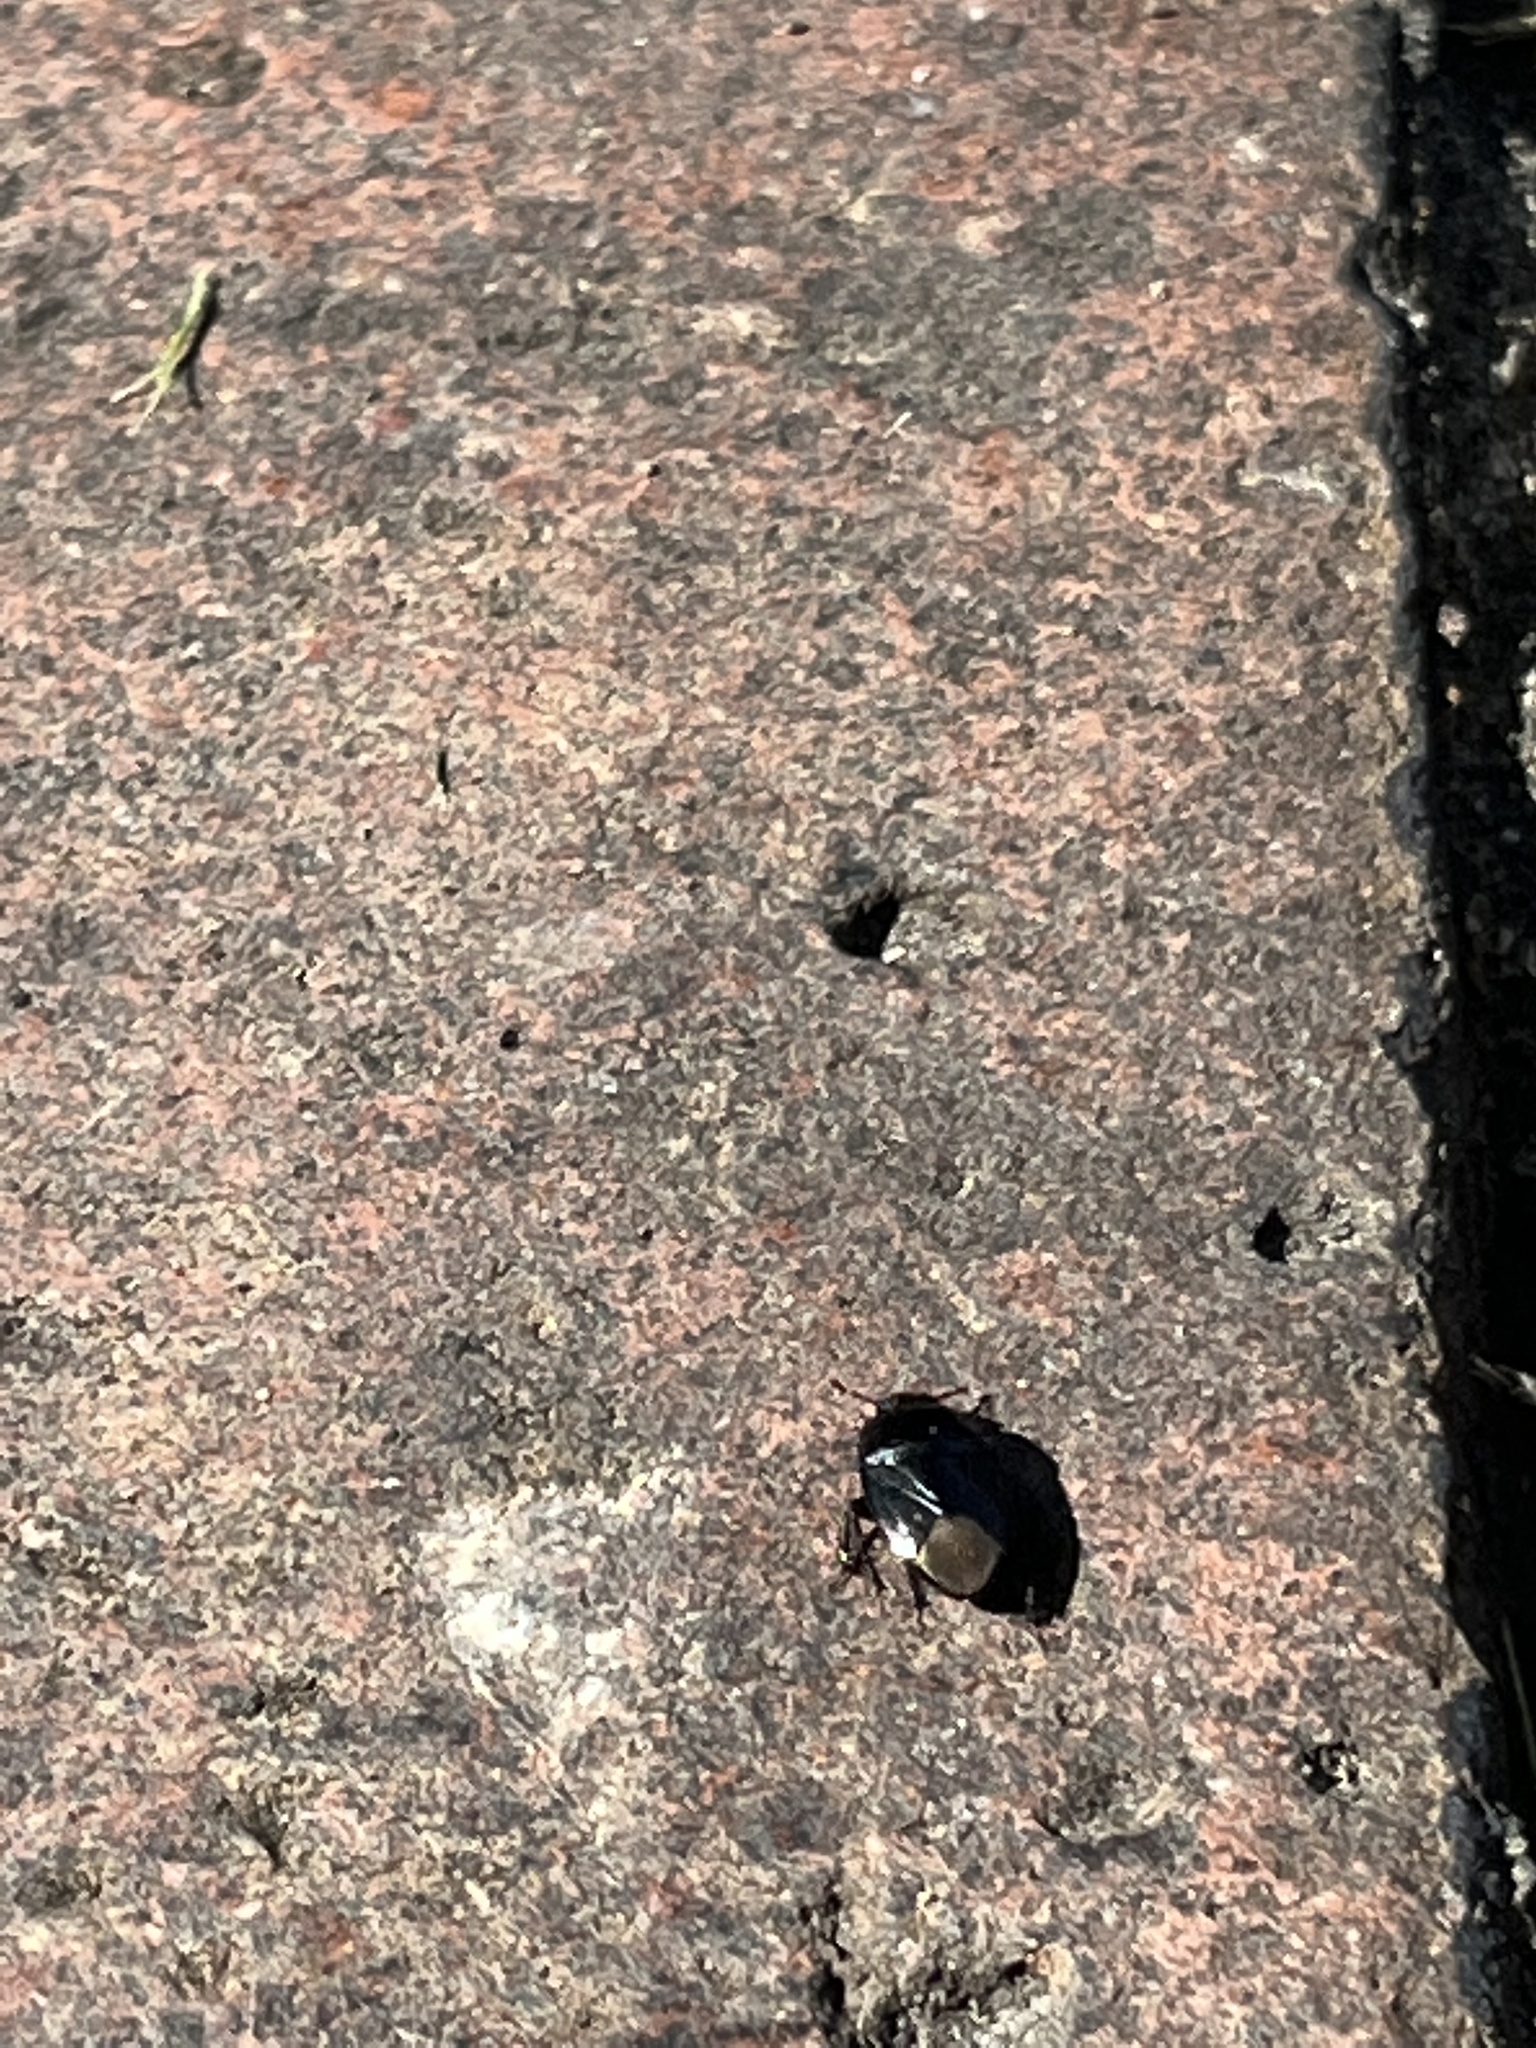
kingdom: Animalia
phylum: Arthropoda
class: Insecta
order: Hemiptera
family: Cydnidae
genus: Pangaeus
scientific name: Pangaeus bilineatus
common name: Burrower bug
